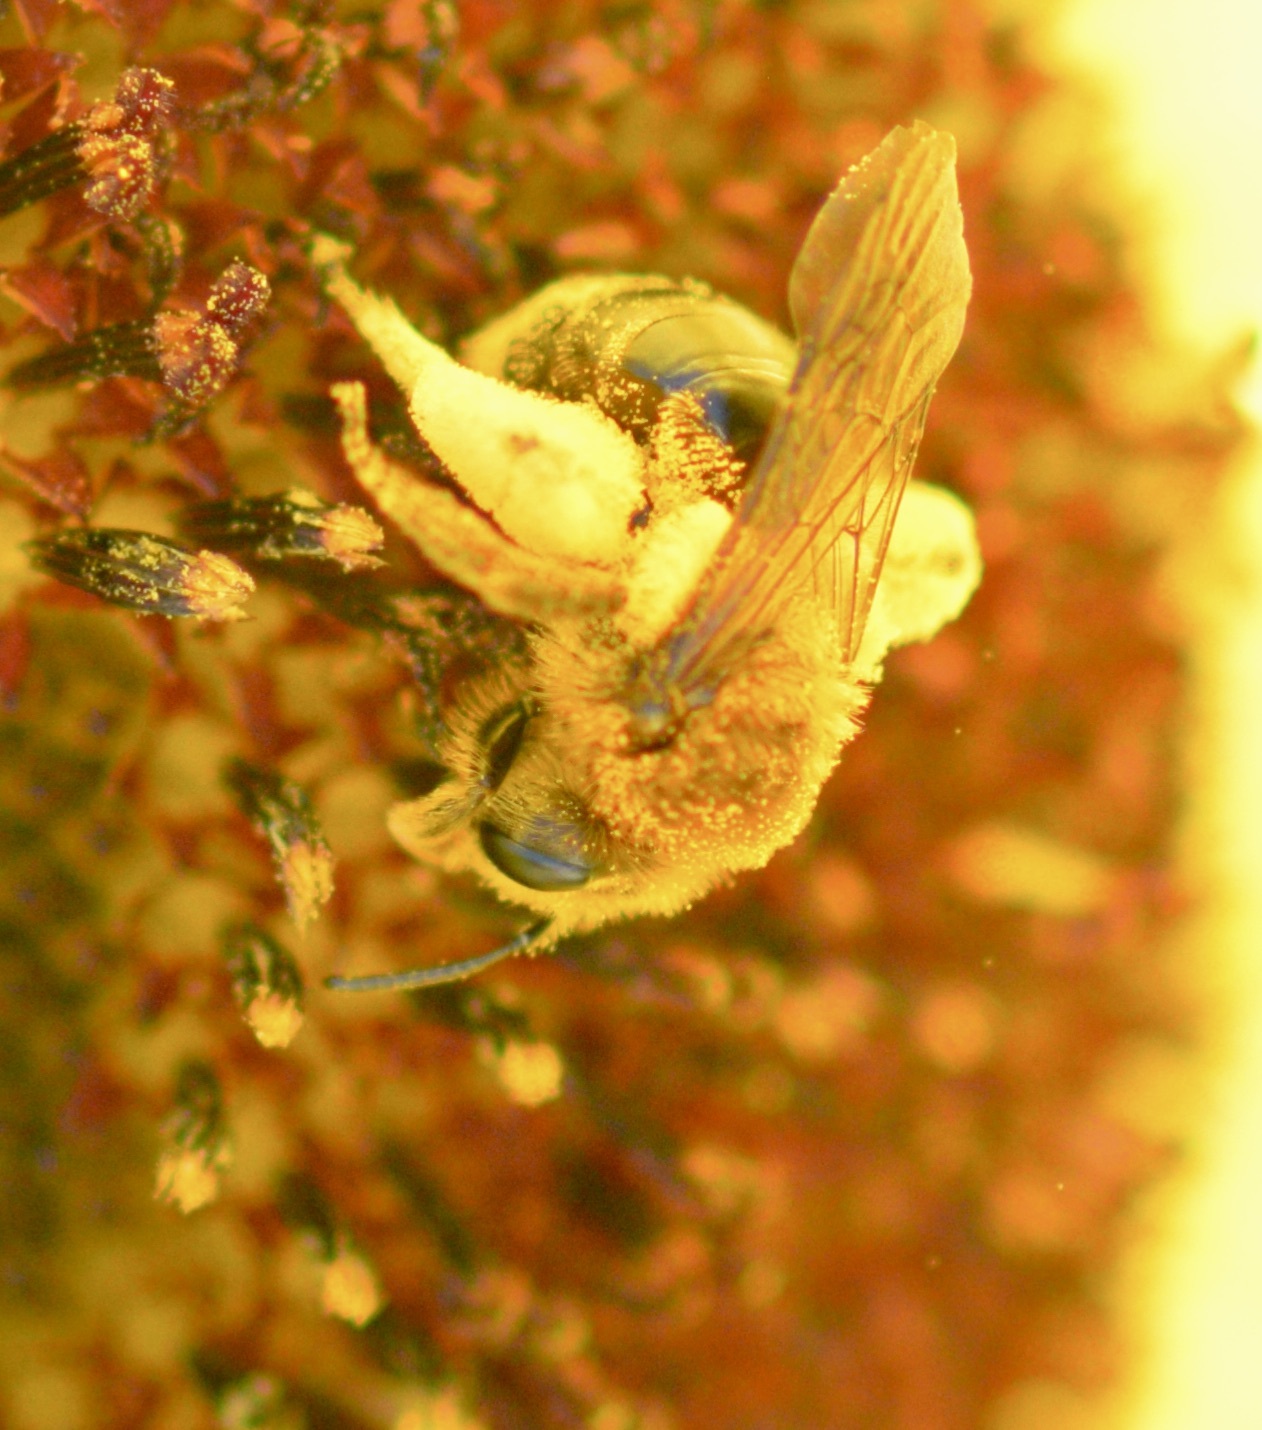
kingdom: Animalia
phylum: Arthropoda
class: Insecta
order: Hymenoptera
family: Andrenidae
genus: Andrena
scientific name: Andrena helianthi
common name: Sunflower mining bee
